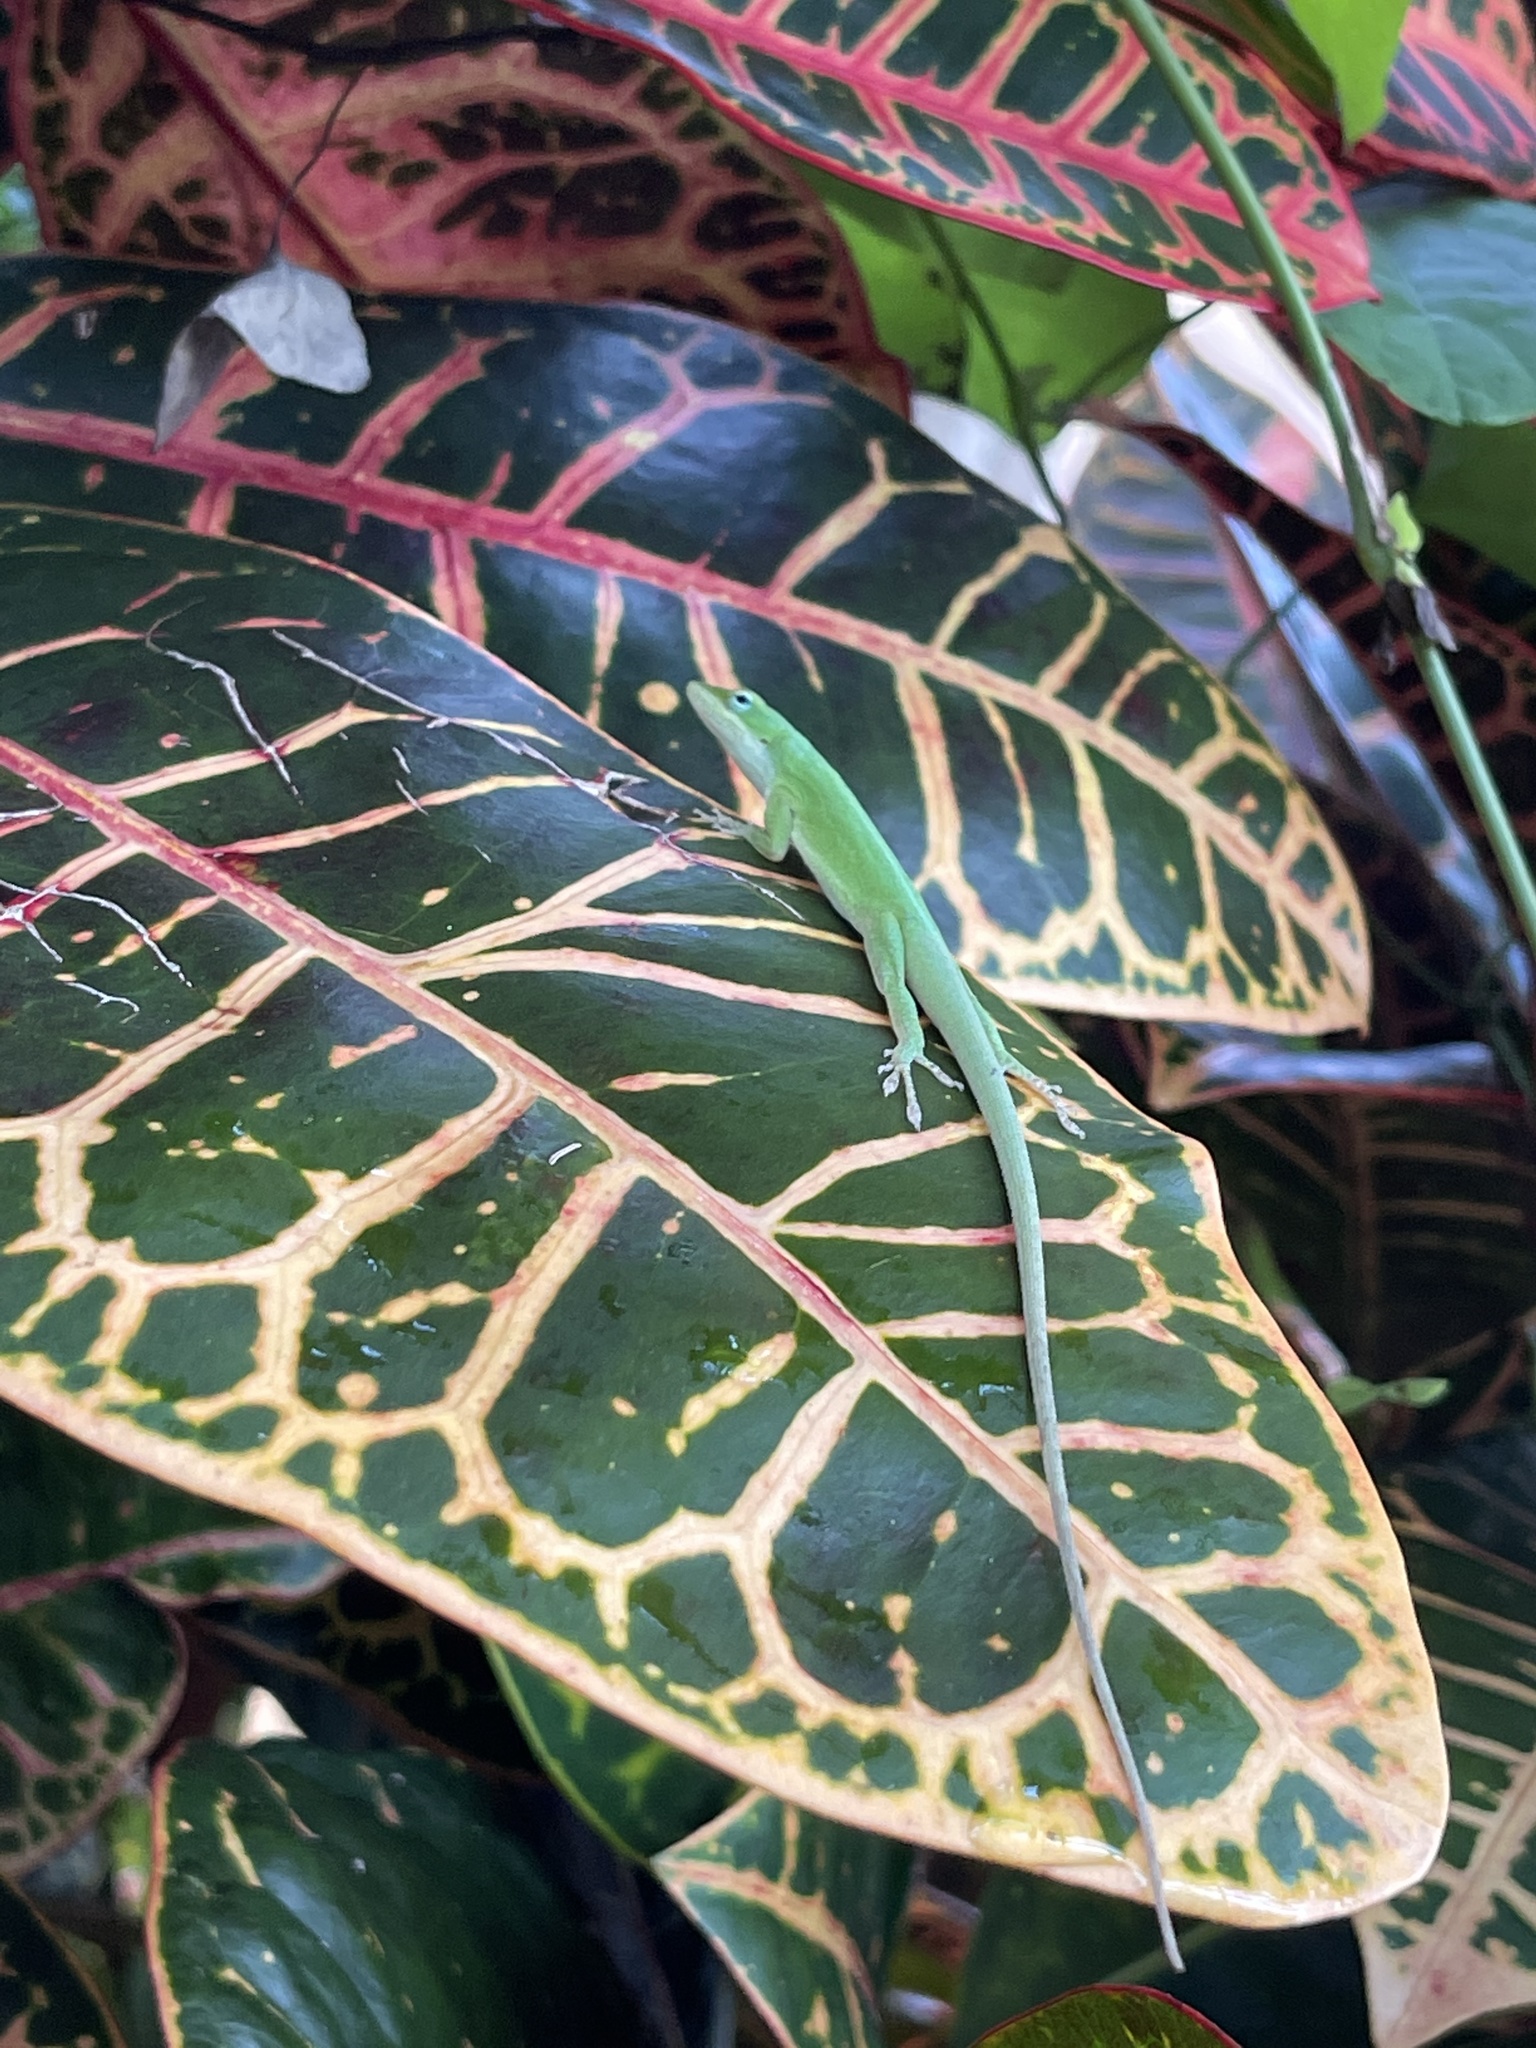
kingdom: Animalia
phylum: Chordata
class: Squamata
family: Dactyloidae
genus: Anolis
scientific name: Anolis carolinensis
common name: Green anole
